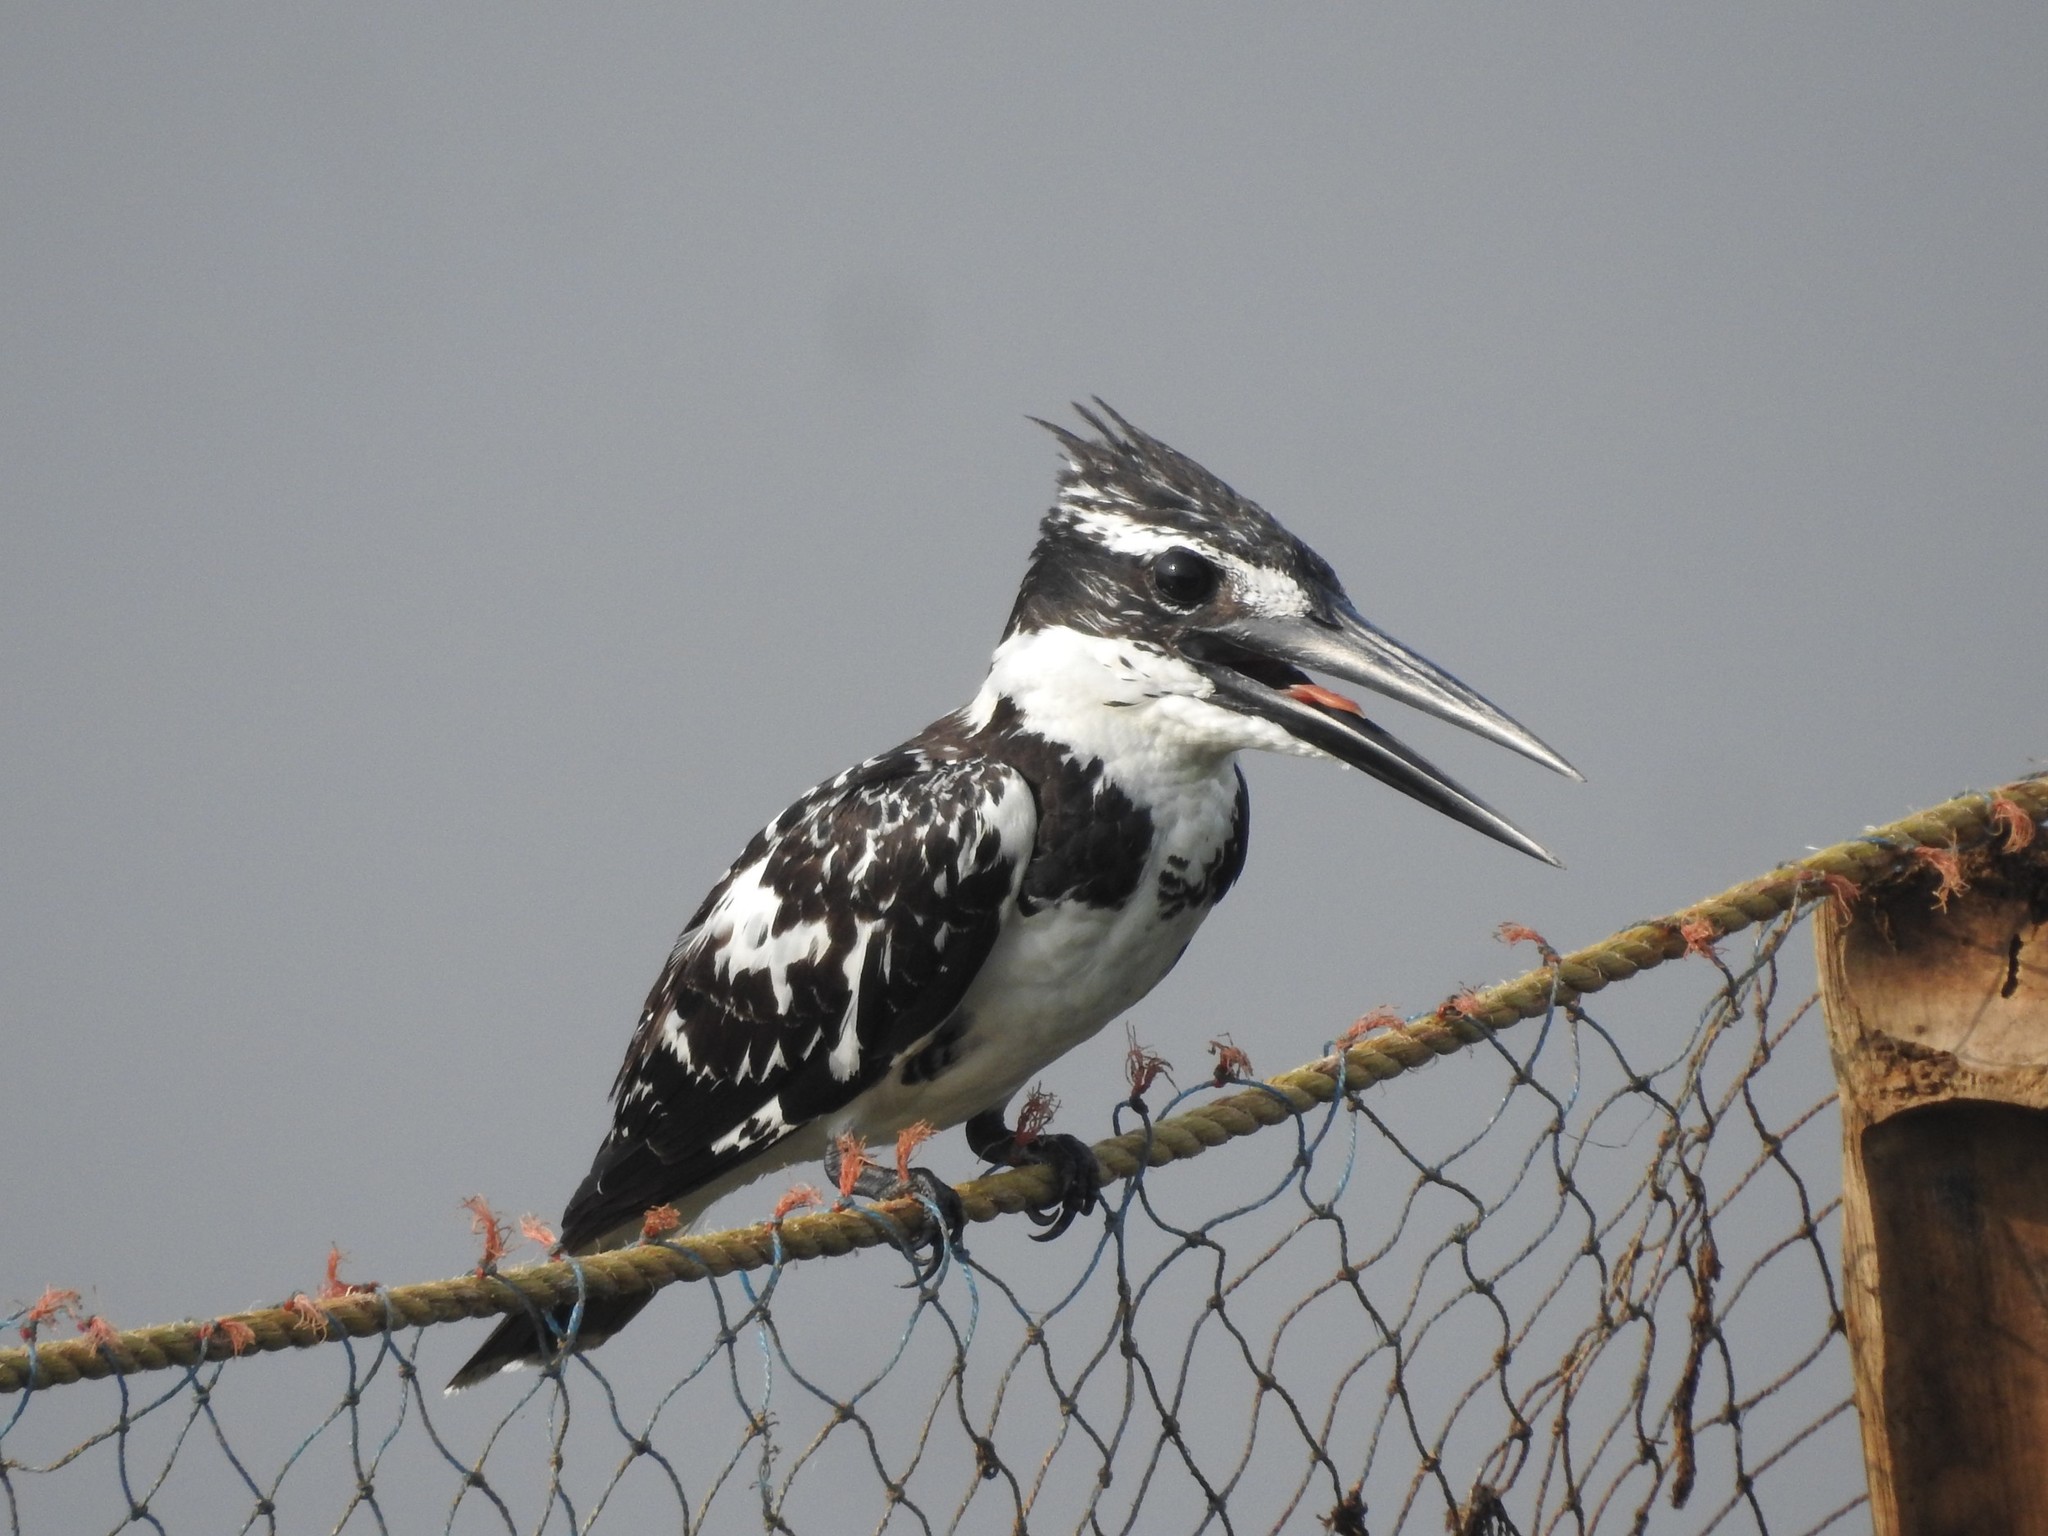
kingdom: Animalia
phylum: Chordata
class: Aves
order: Coraciiformes
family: Alcedinidae
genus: Ceryle
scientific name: Ceryle rudis
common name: Pied kingfisher
